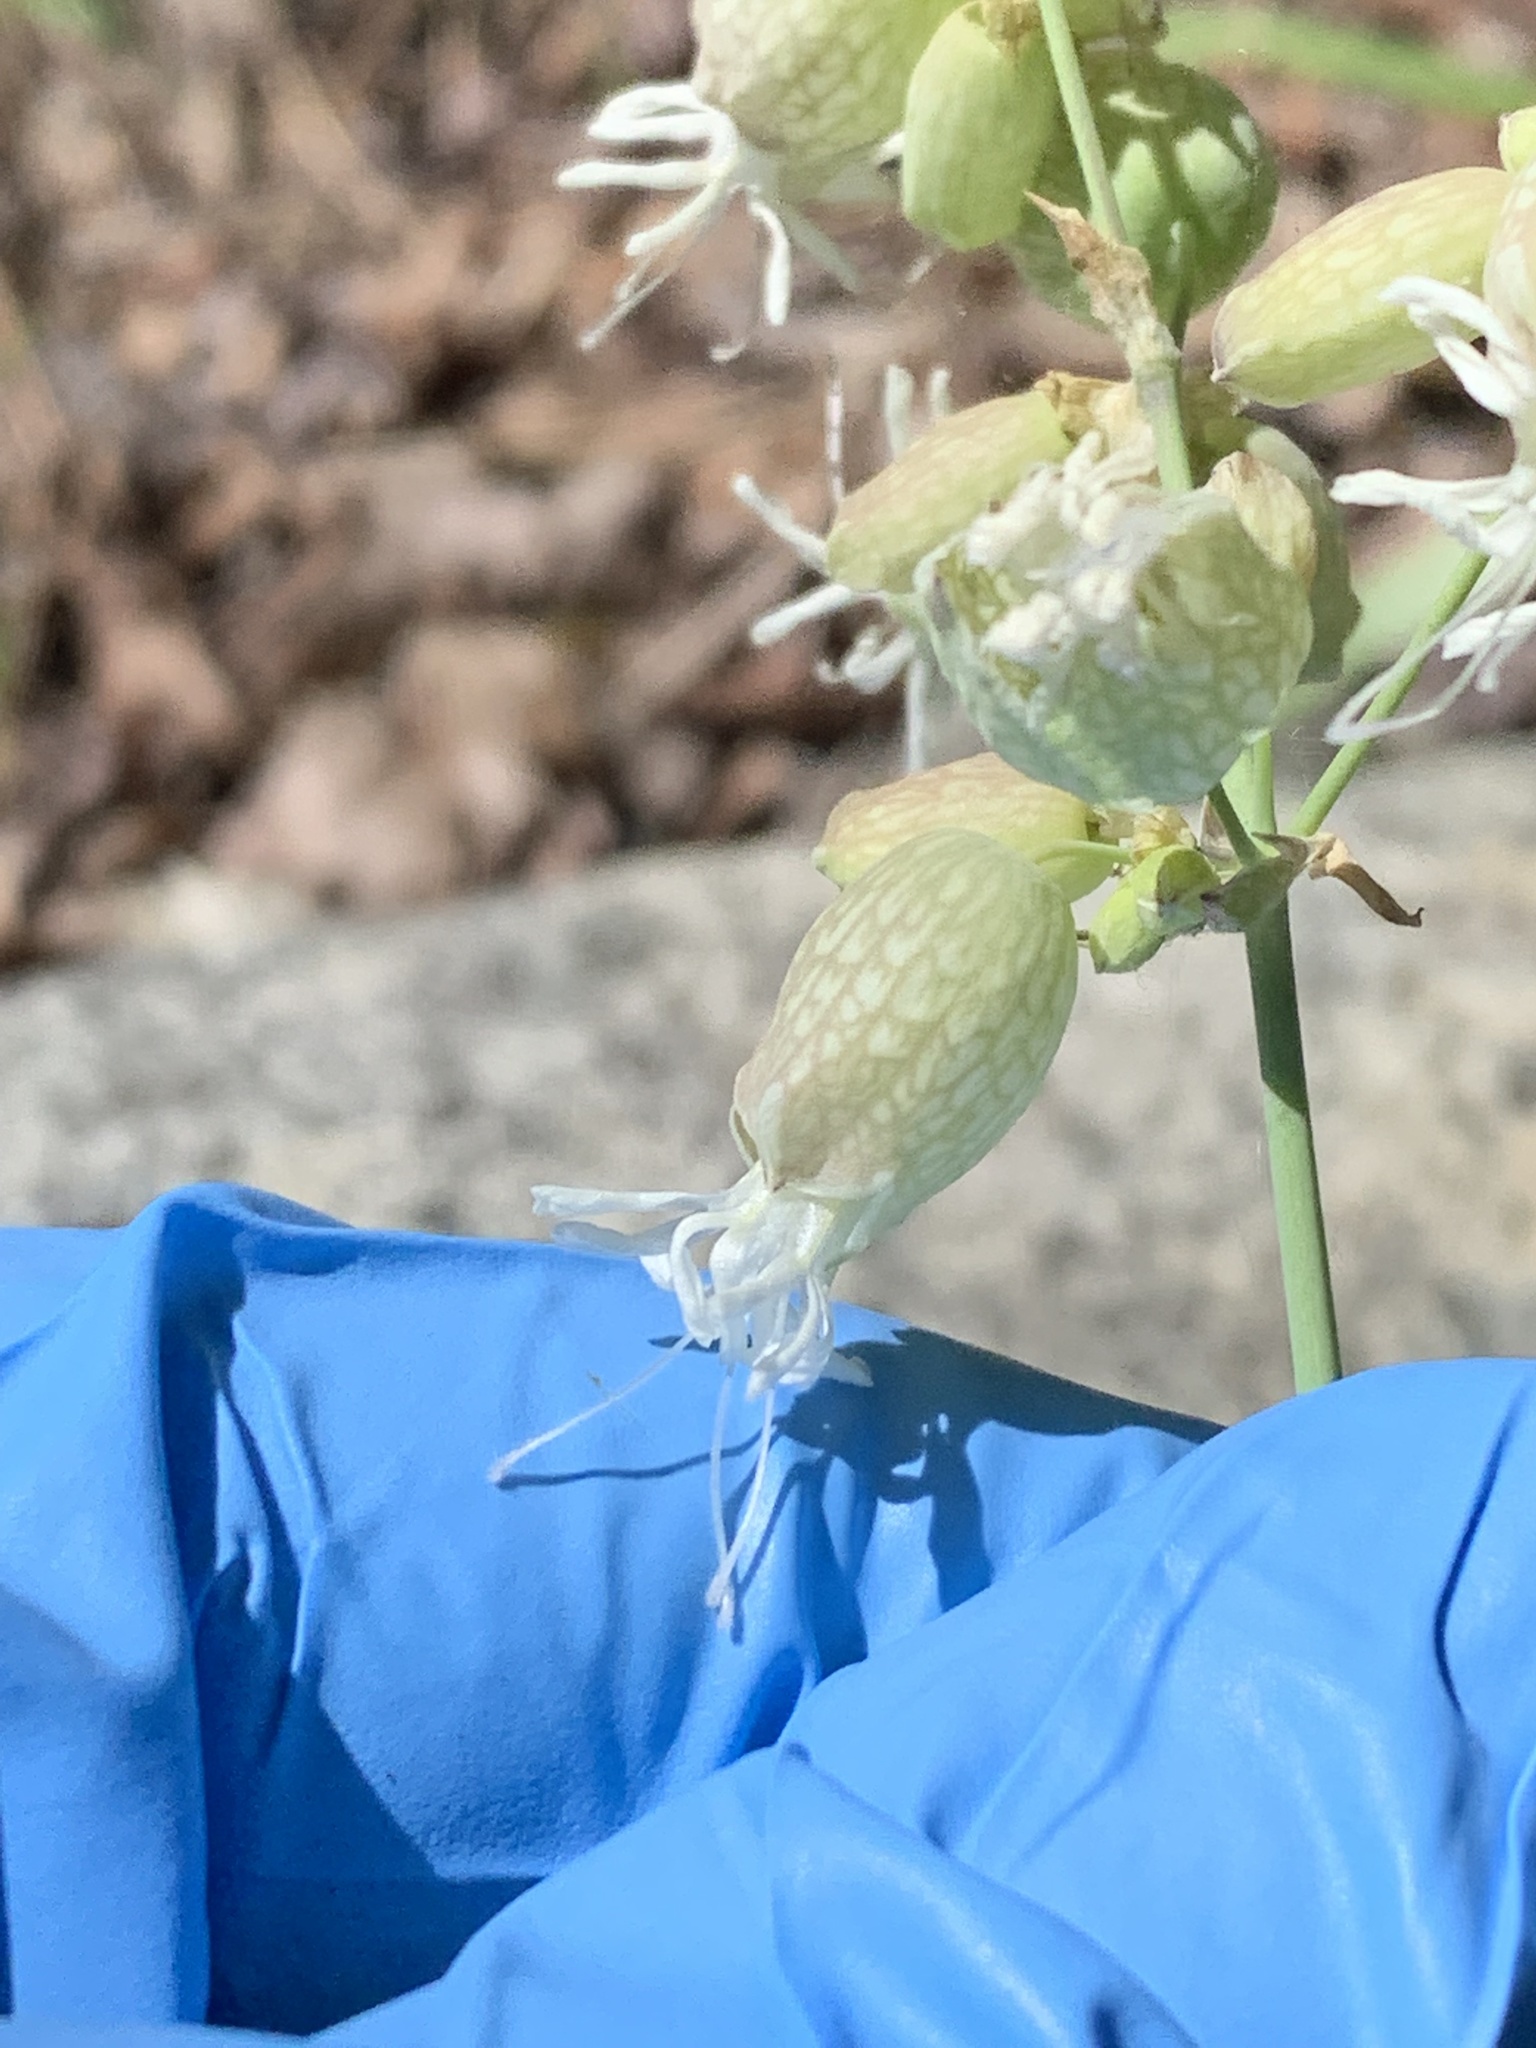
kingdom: Plantae
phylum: Tracheophyta
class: Magnoliopsida
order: Caryophyllales
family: Caryophyllaceae
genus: Silene
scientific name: Silene vulgaris
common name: Bladder campion
